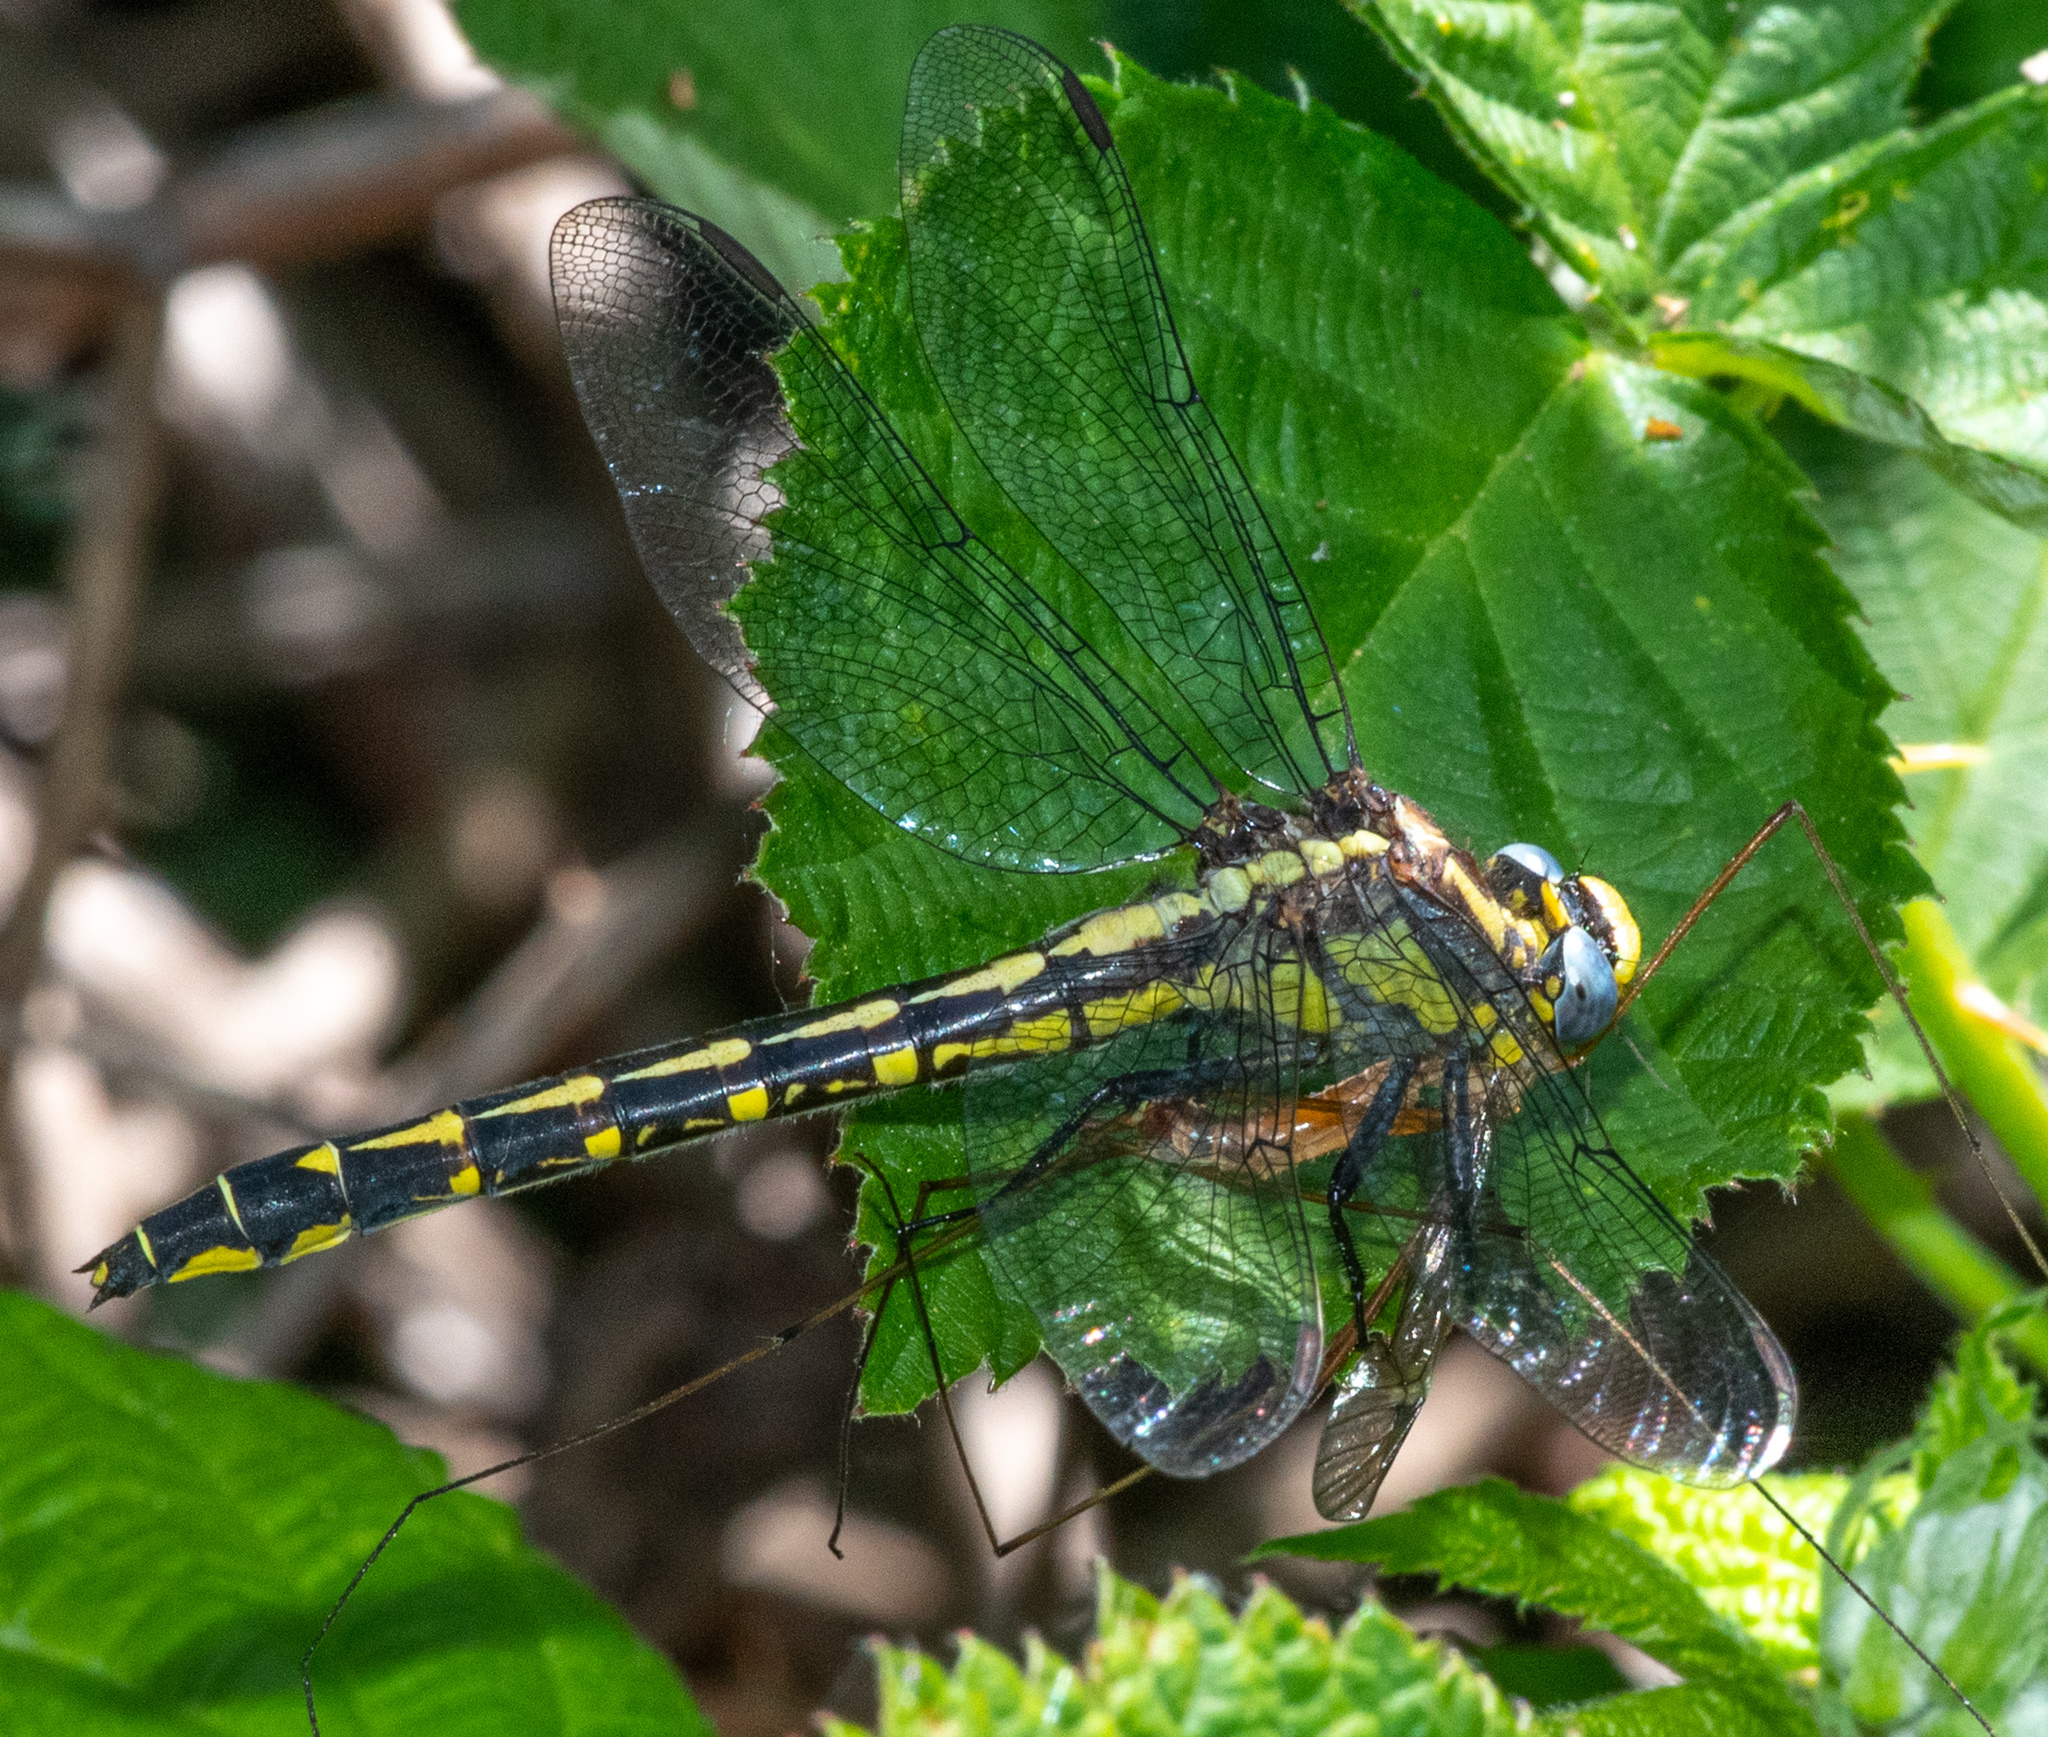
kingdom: Animalia
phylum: Arthropoda
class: Insecta
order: Odonata
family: Gomphidae
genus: Phanogomphus
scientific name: Phanogomphus kurilis
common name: Pacific clubtail
